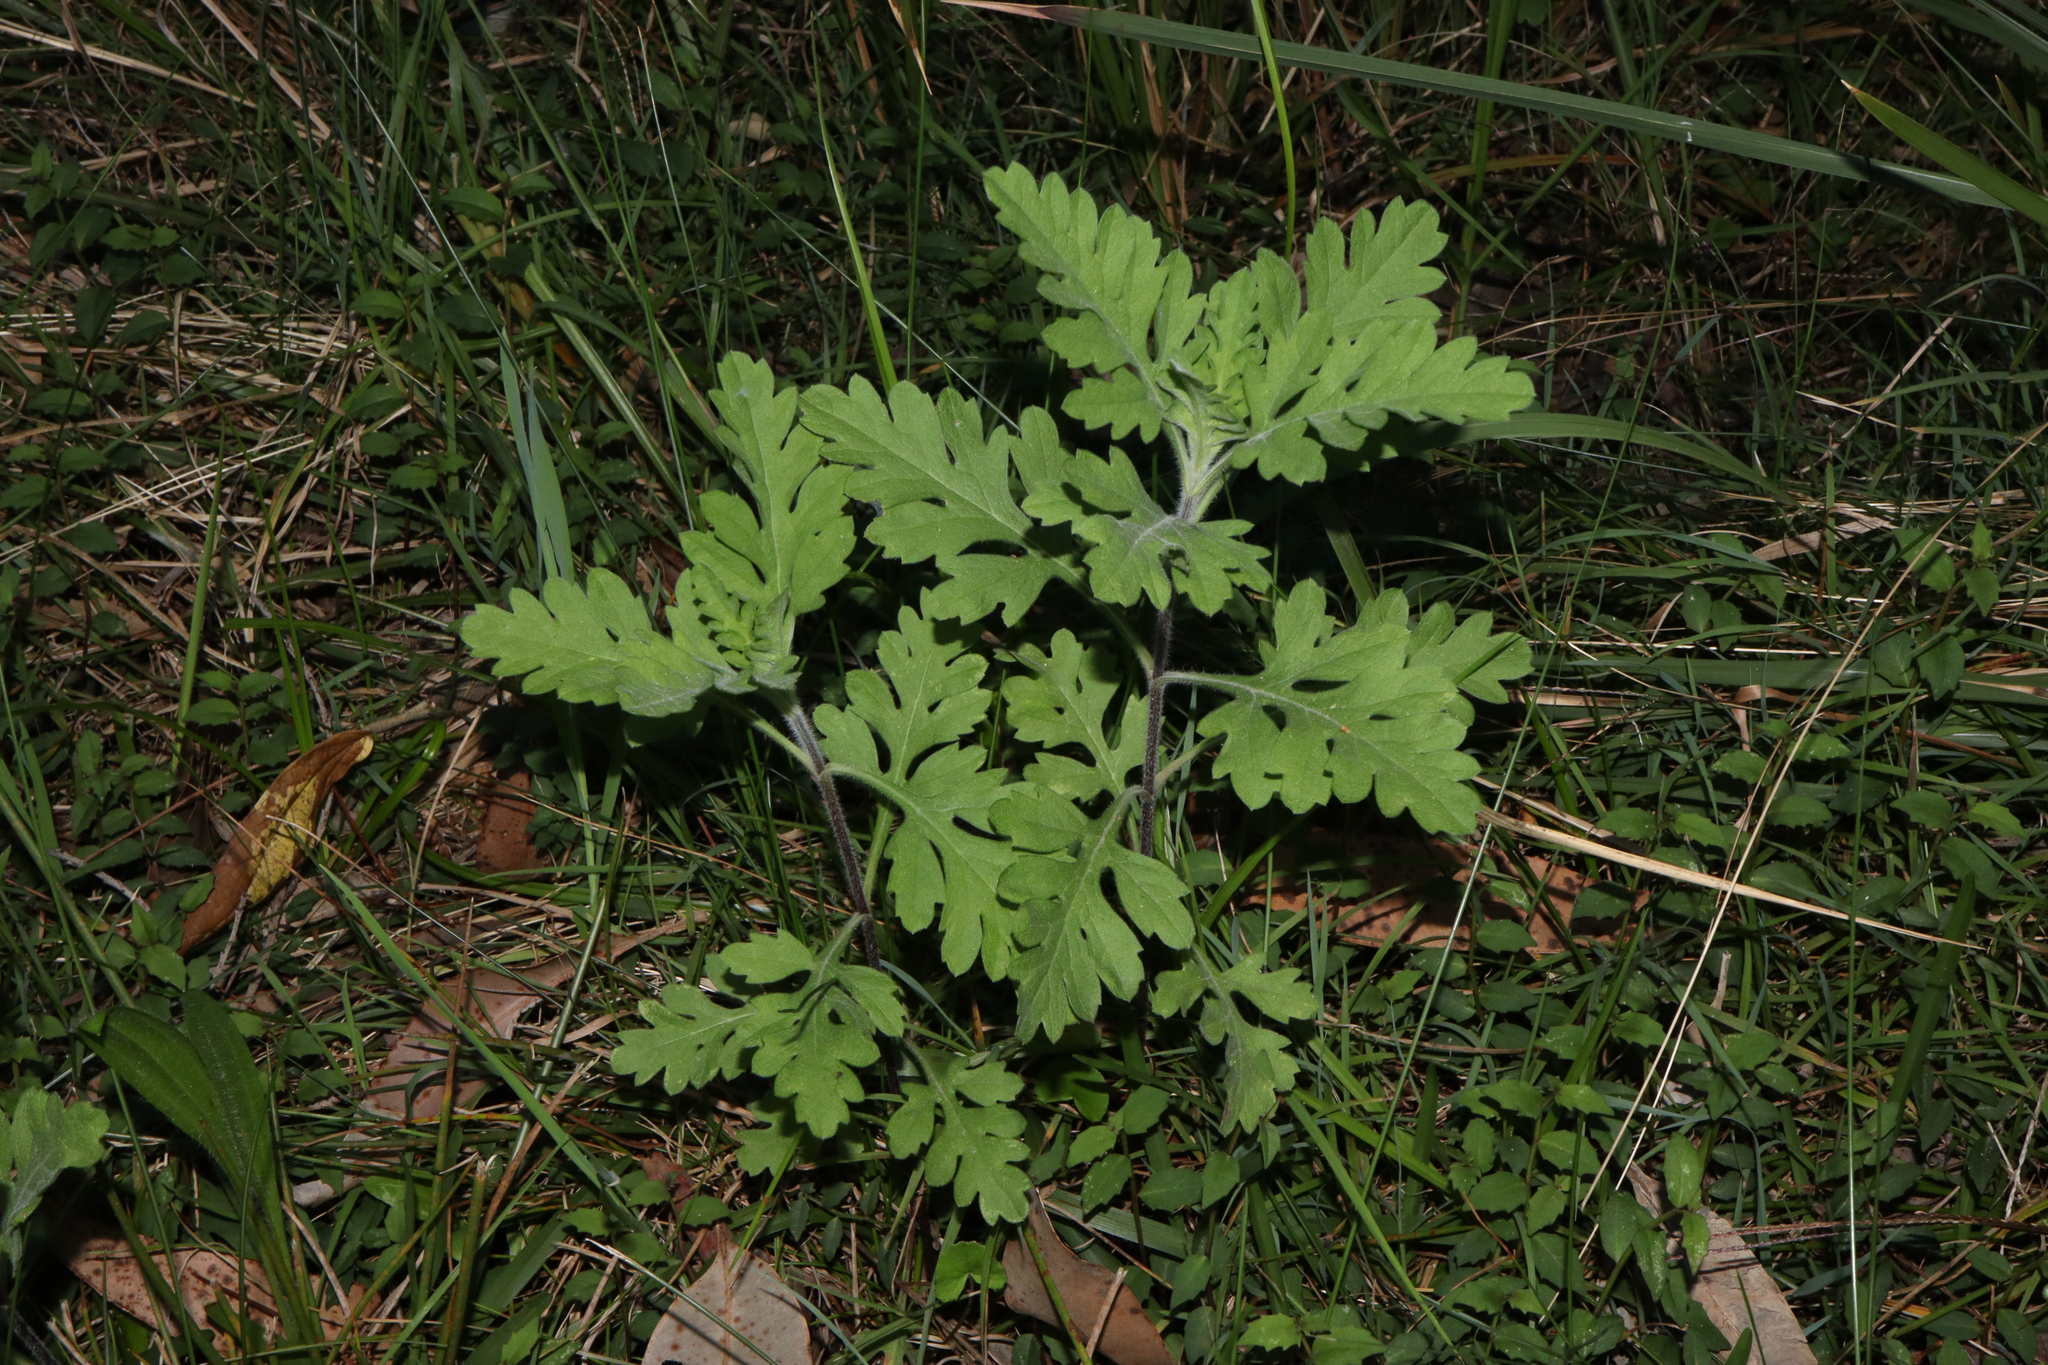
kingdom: Plantae
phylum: Tracheophyta
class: Magnoliopsida
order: Asterales
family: Asteraceae
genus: Tanacetum
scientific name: Tanacetum parthenium
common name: Feverfew
